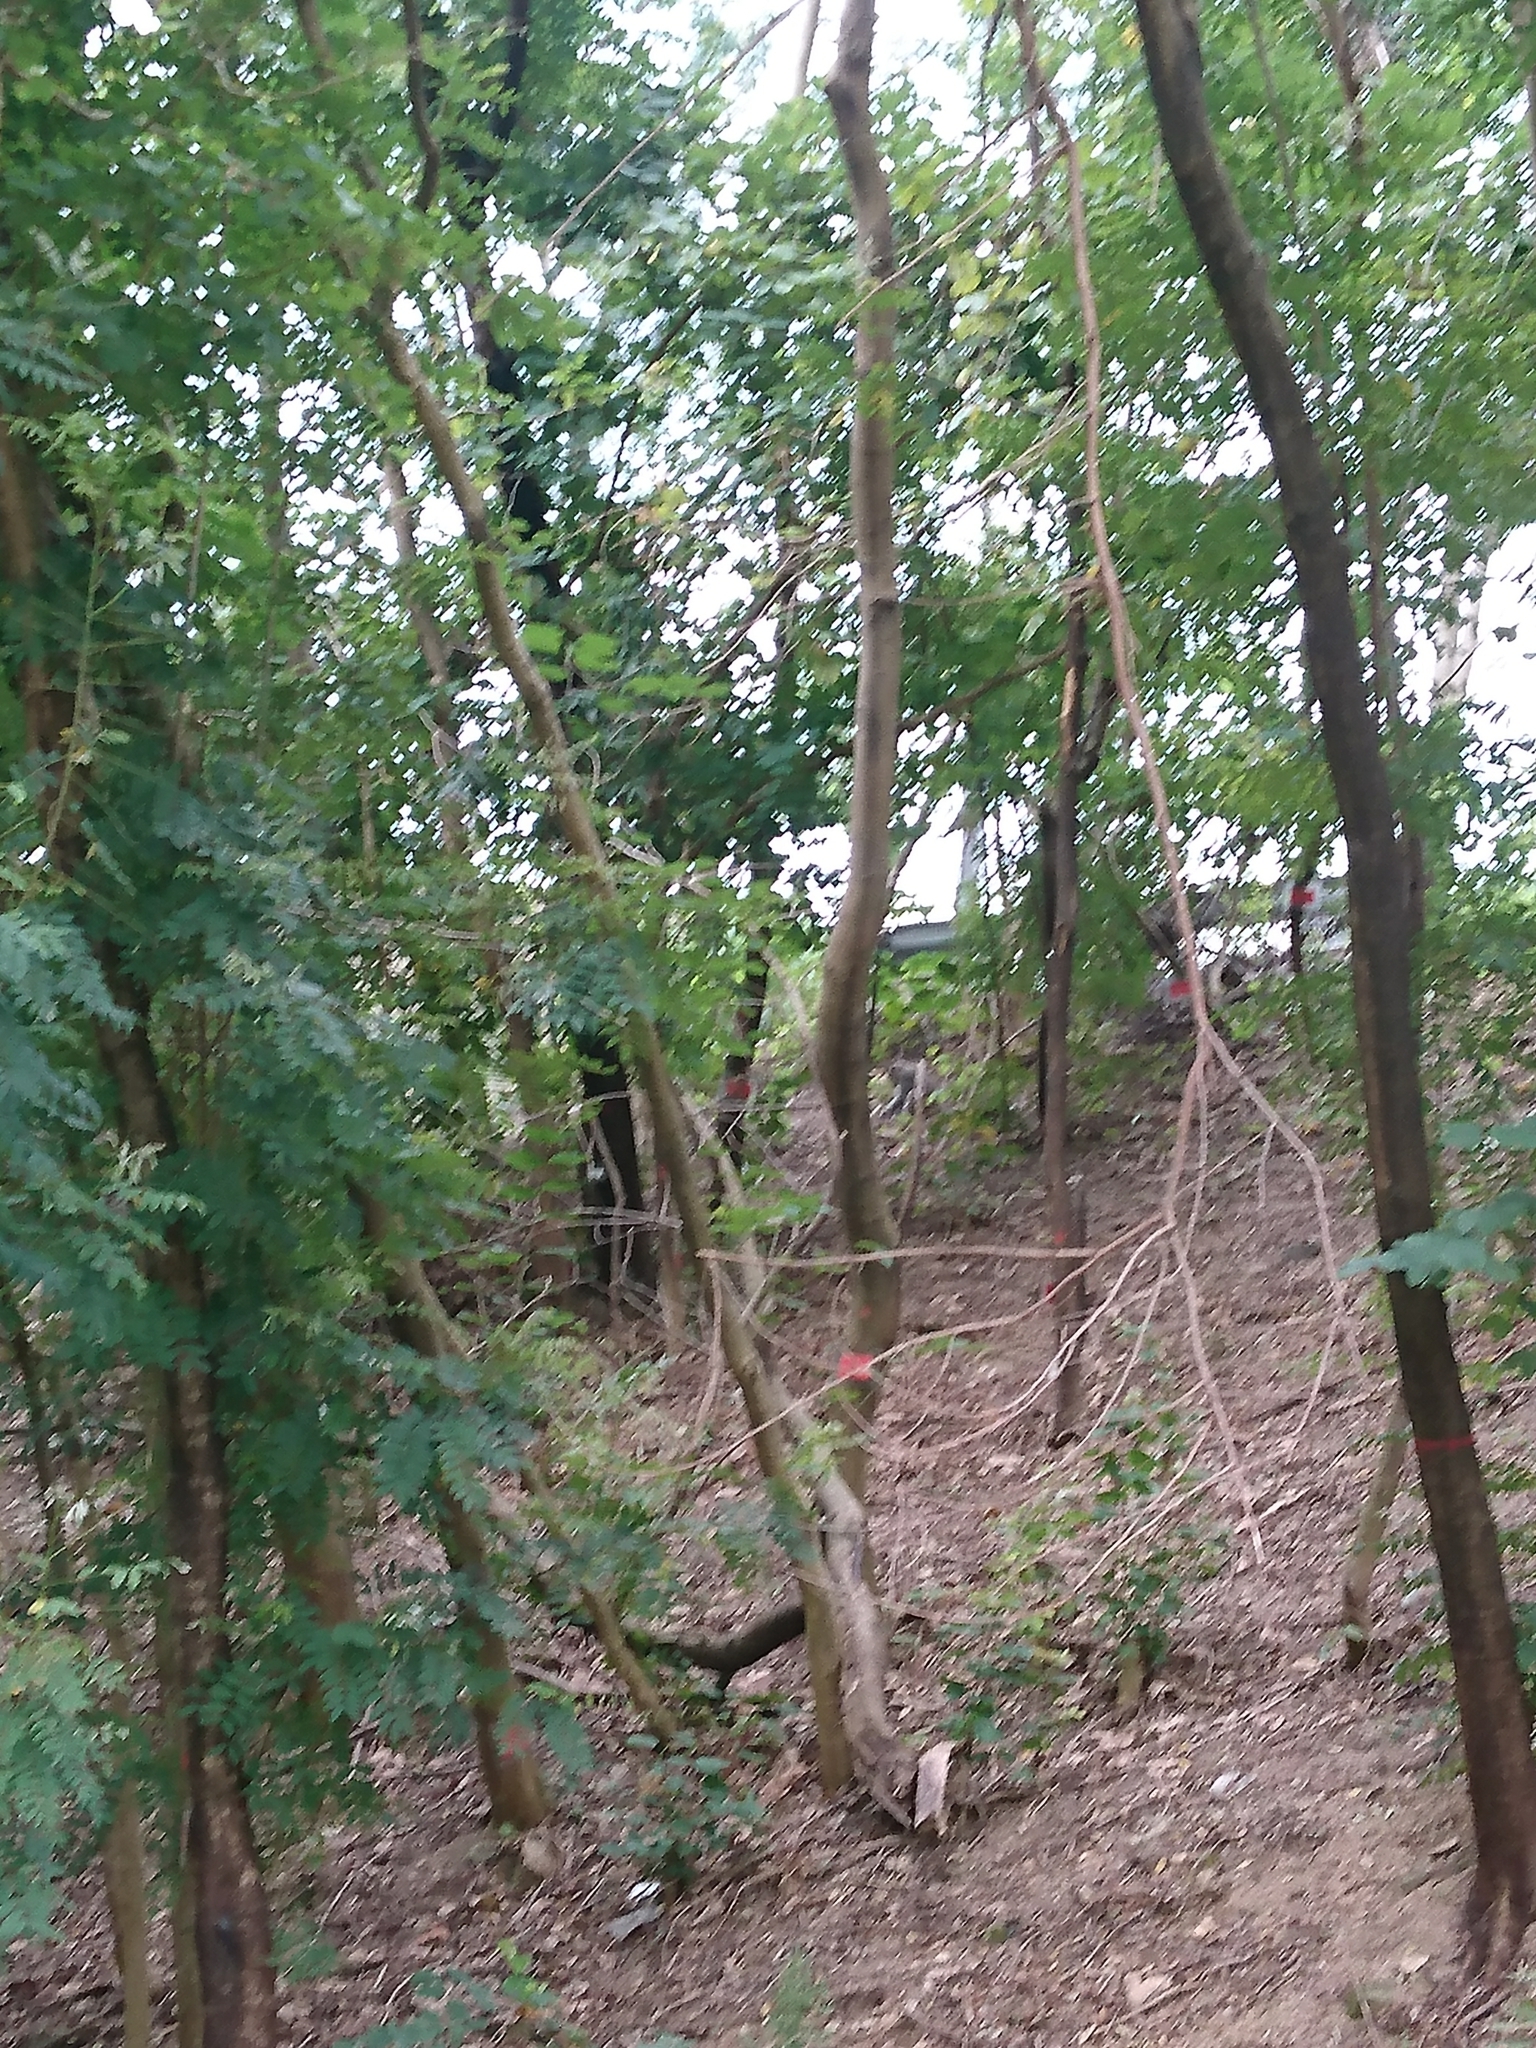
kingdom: Animalia
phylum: Chordata
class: Mammalia
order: Primates
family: Cercopithecidae
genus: Macaca
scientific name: Macaca mulatta
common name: Rhesus monkey
